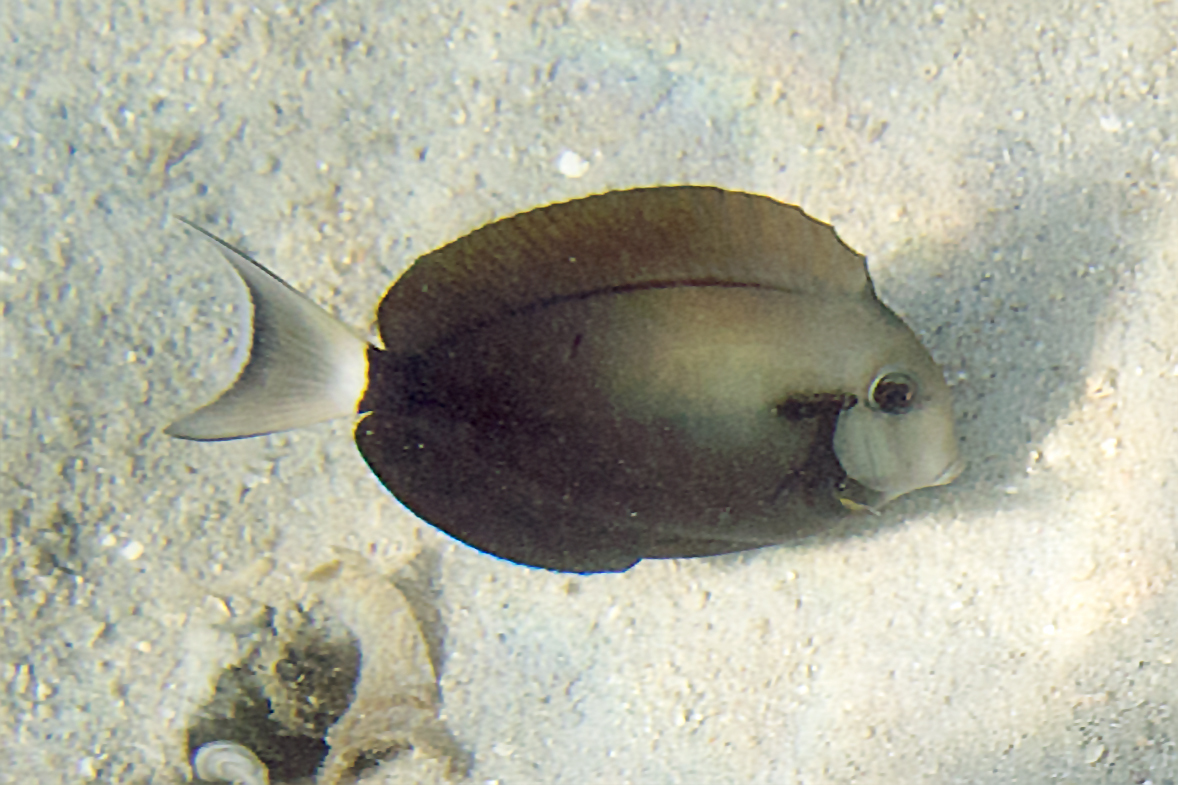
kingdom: Animalia
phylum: Chordata
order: Perciformes
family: Acanthuridae
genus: Acanthurus
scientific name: Acanthurus nigricauda
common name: Black-barred surgeonfish
